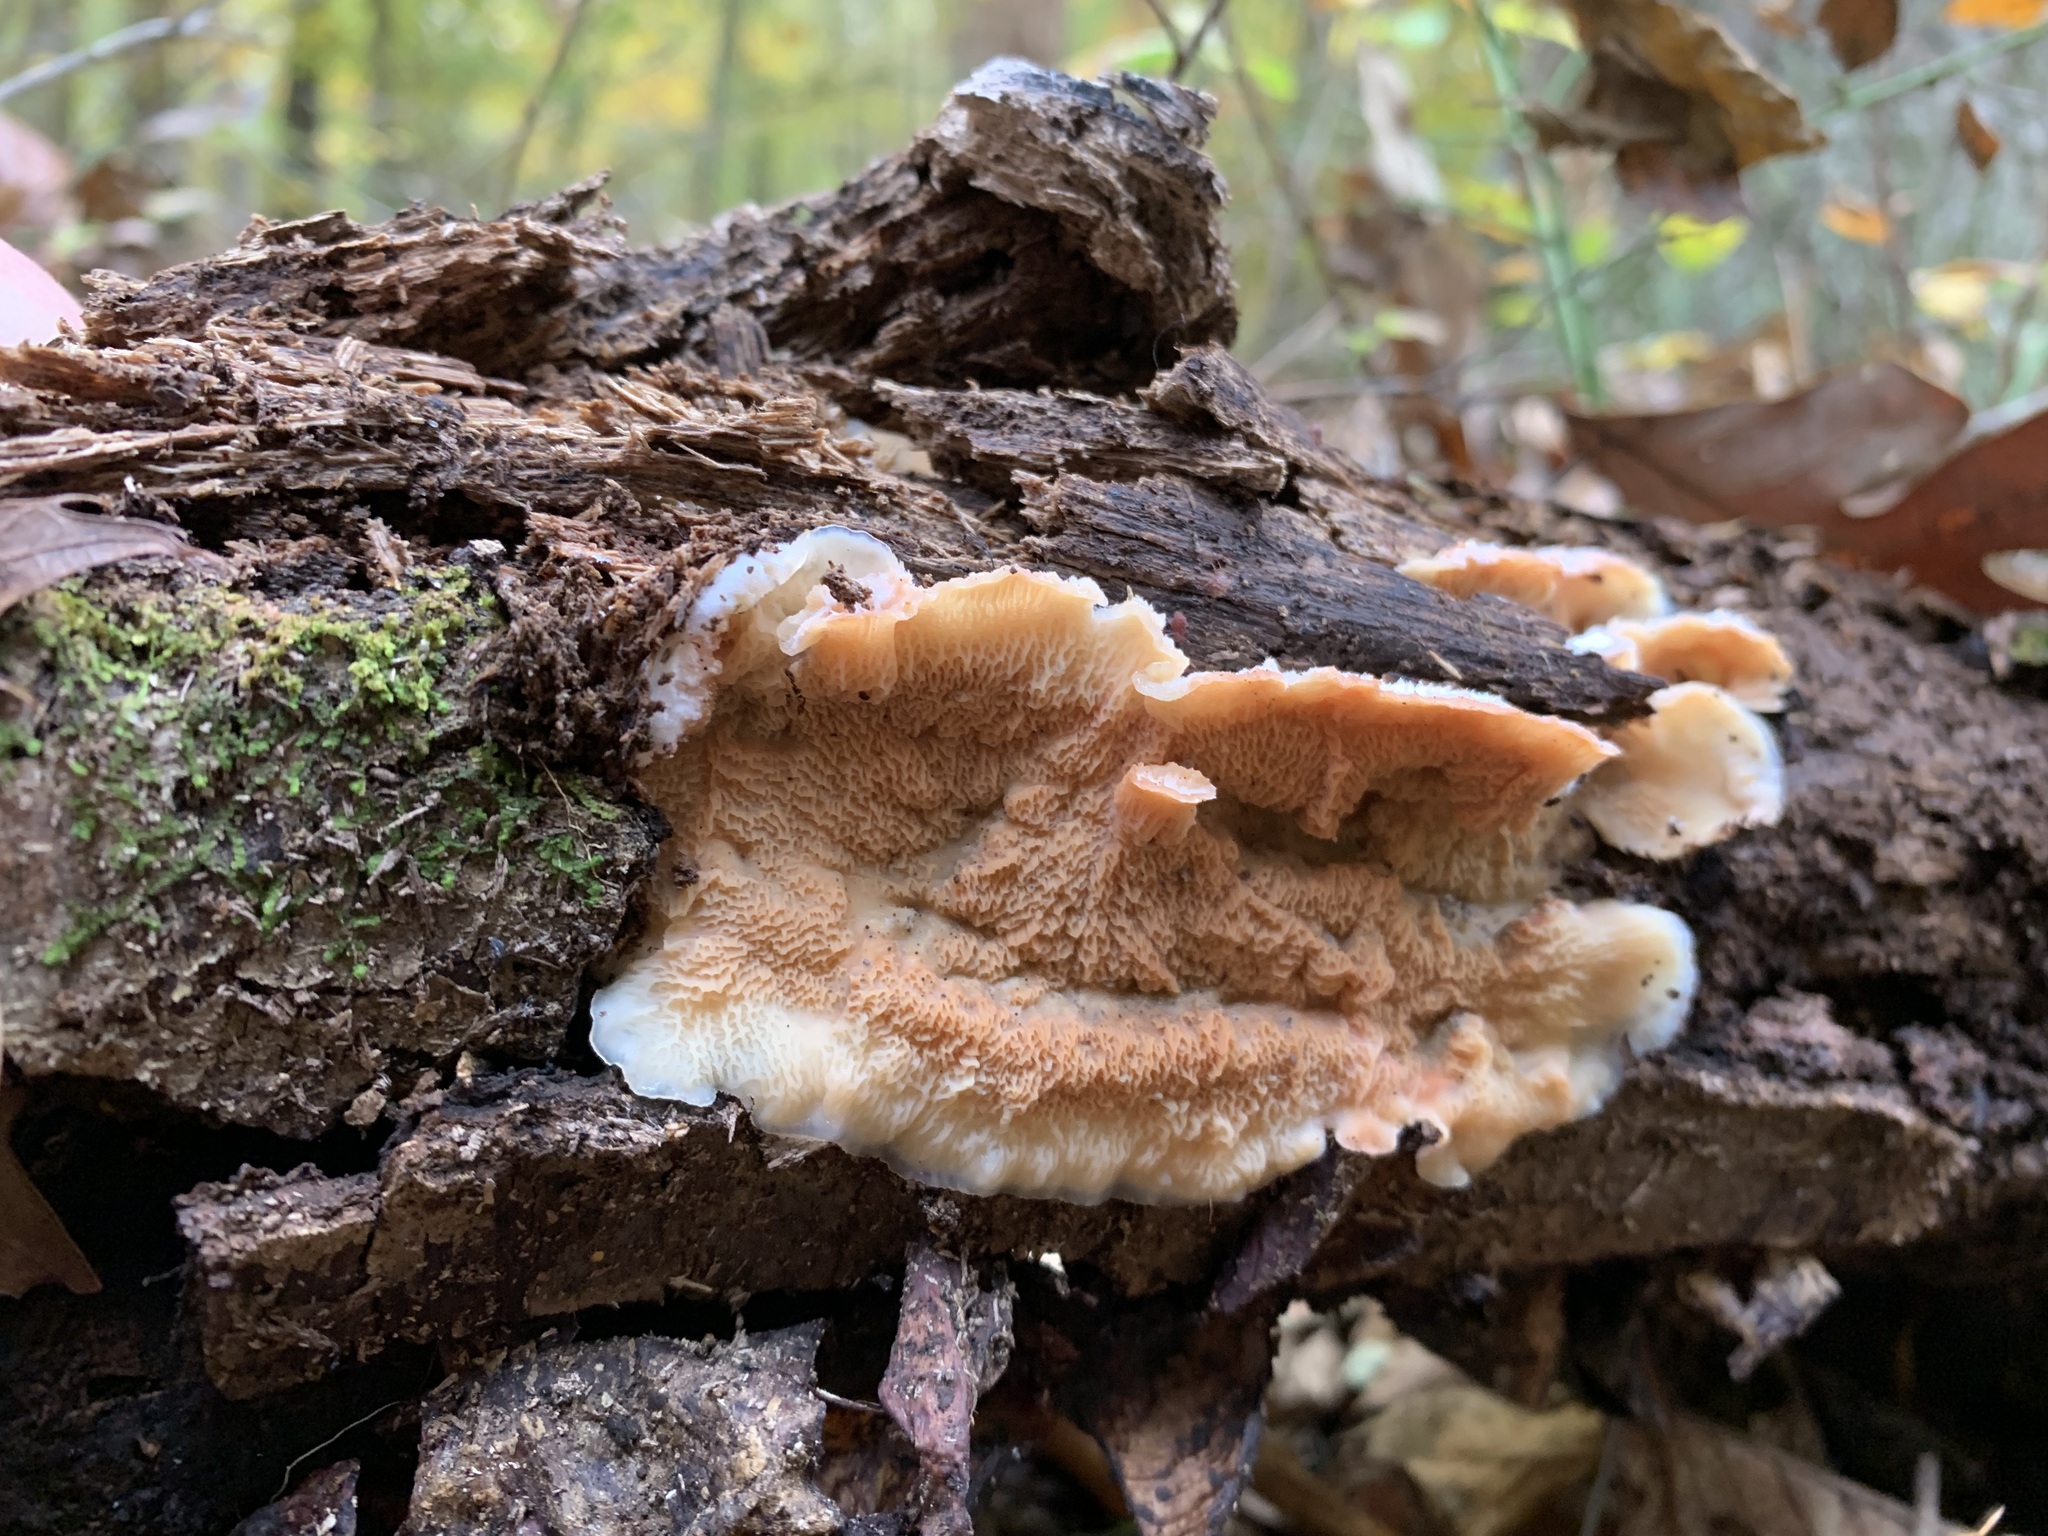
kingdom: Fungi
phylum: Basidiomycota
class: Agaricomycetes
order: Polyporales
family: Meruliaceae
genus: Phlebia
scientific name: Phlebia tremellosa
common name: Jelly rot
